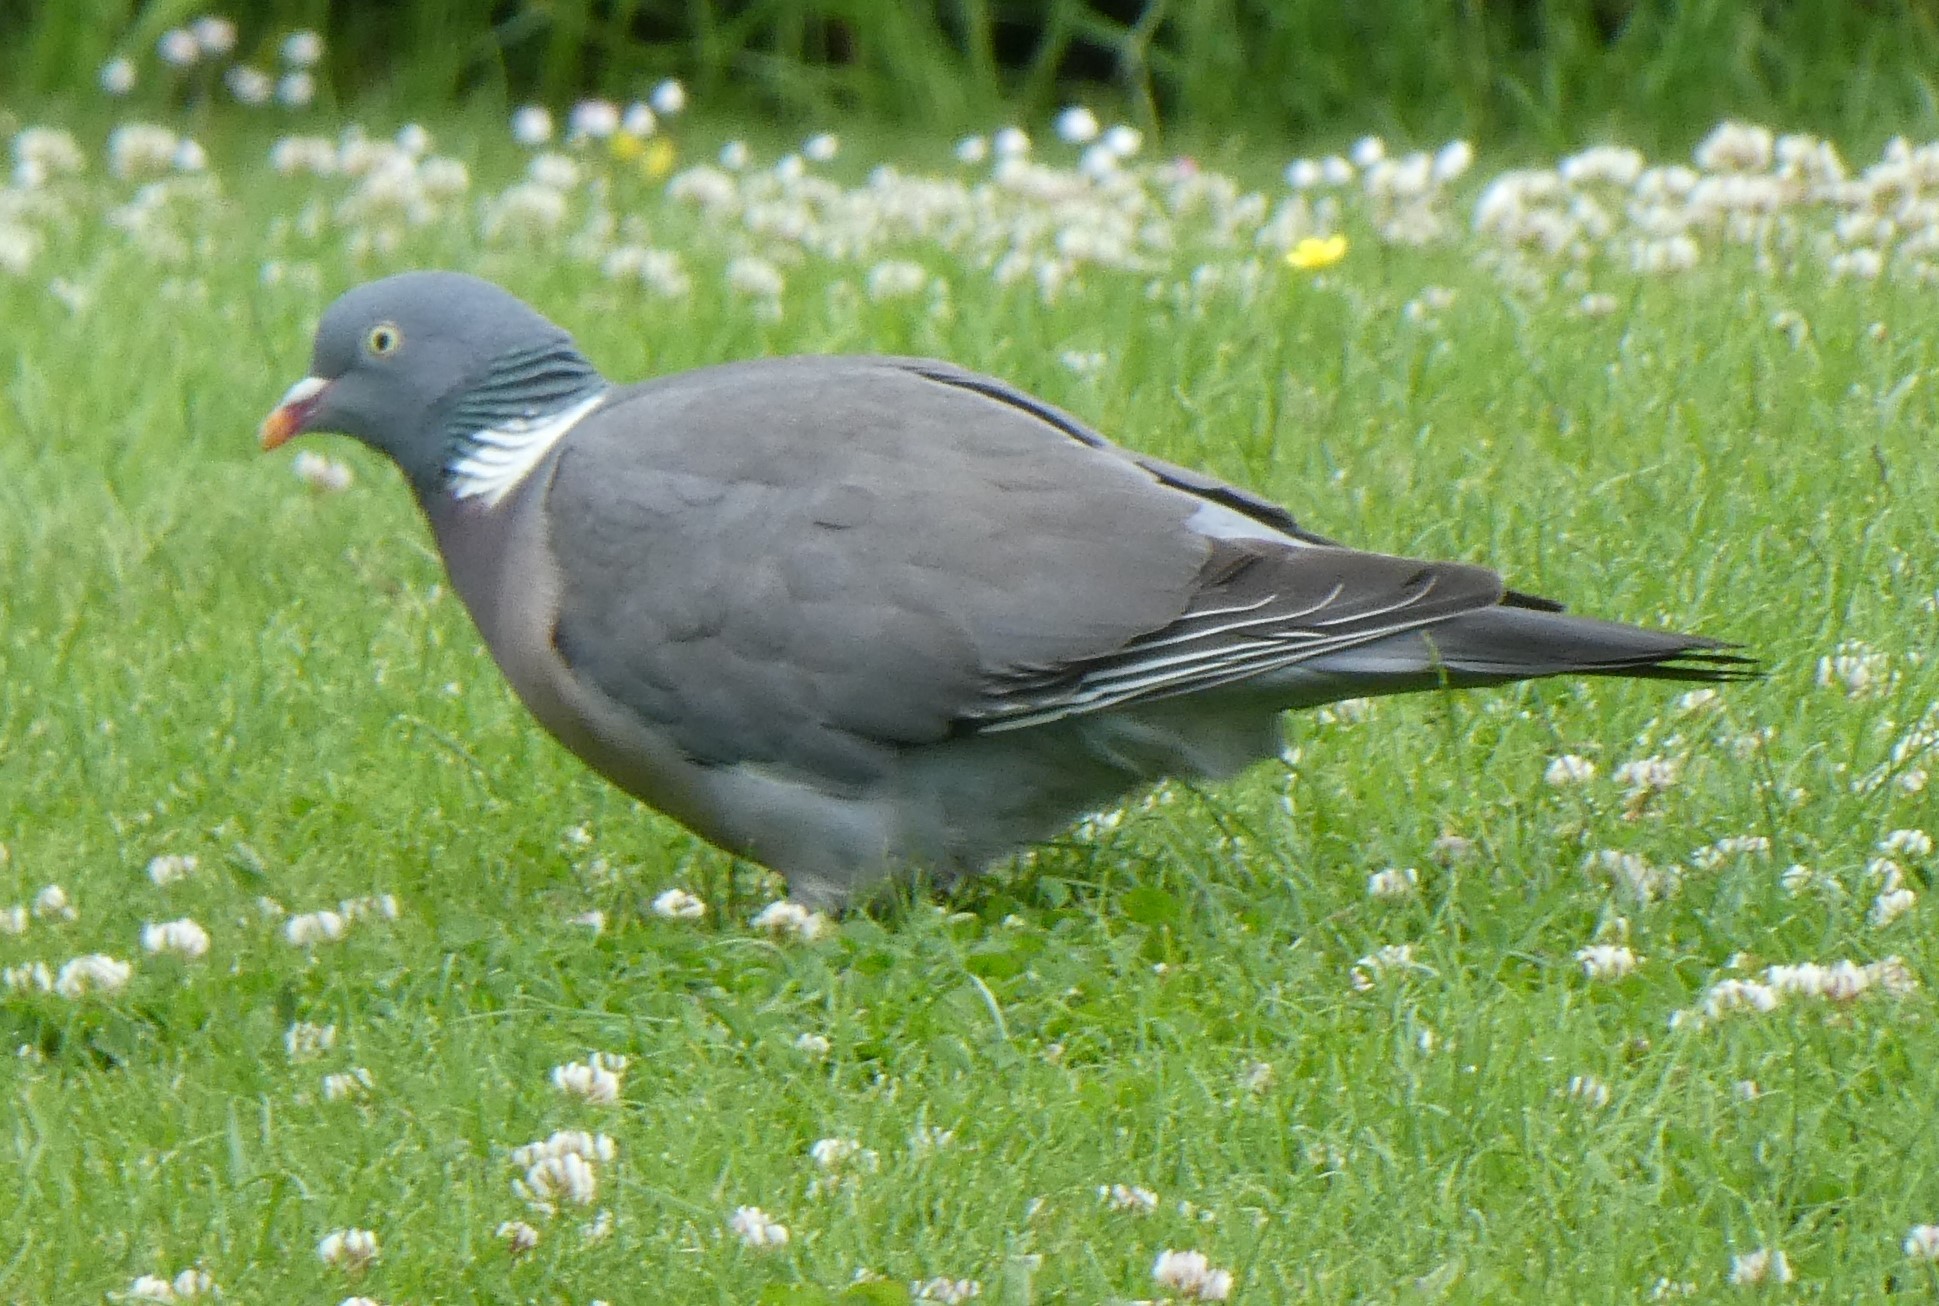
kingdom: Animalia
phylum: Chordata
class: Aves
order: Columbiformes
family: Columbidae
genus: Columba
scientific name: Columba palumbus
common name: Common wood pigeon
